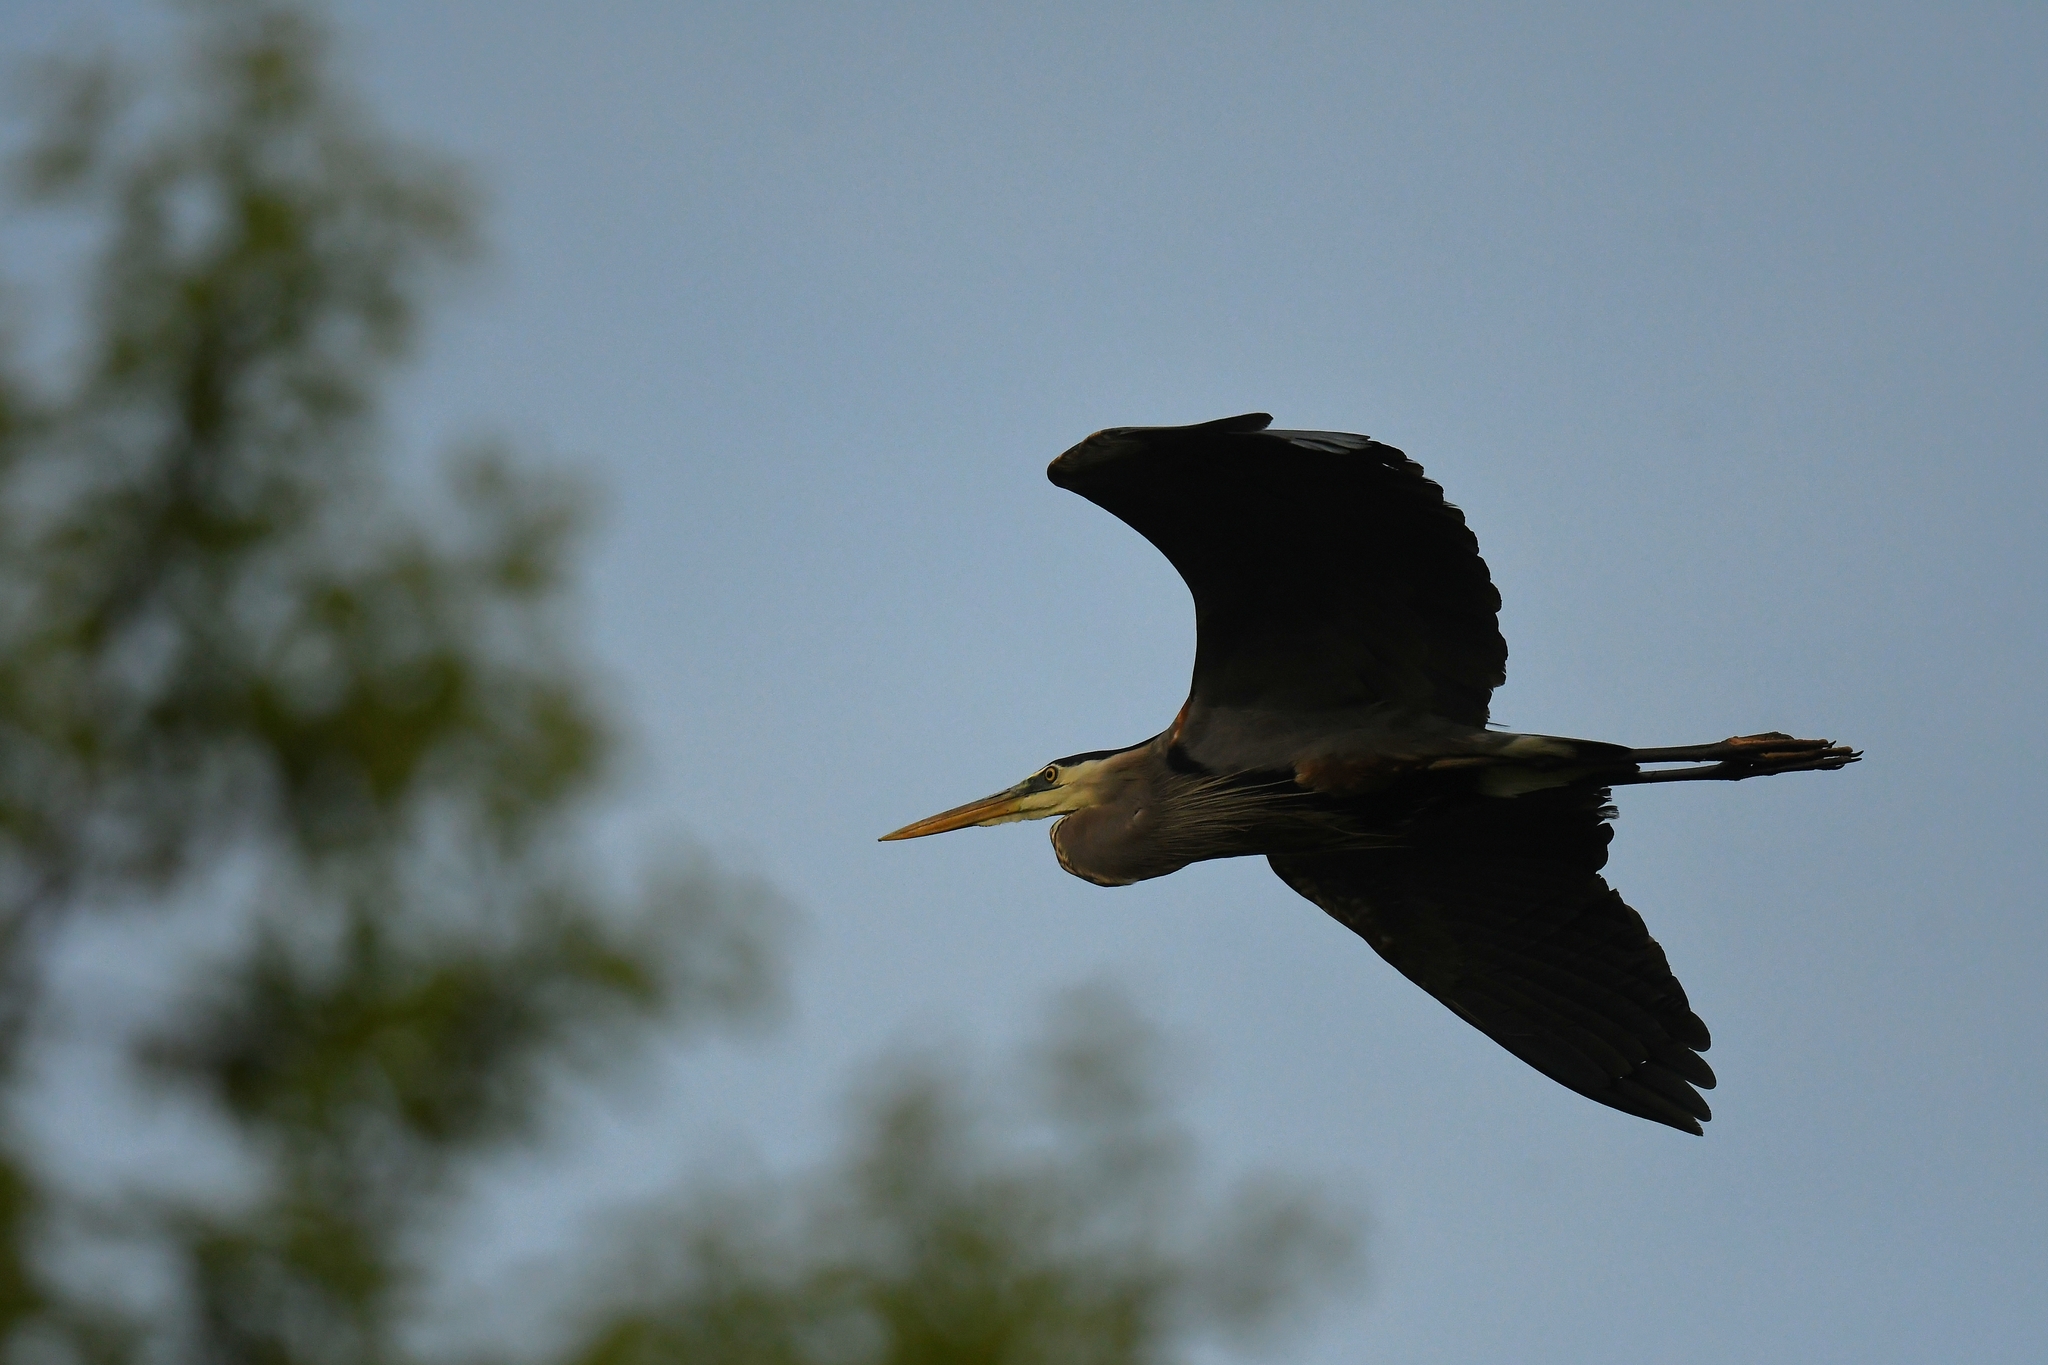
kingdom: Animalia
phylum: Chordata
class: Aves
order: Pelecaniformes
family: Ardeidae
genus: Ardea
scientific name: Ardea herodias
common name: Great blue heron
